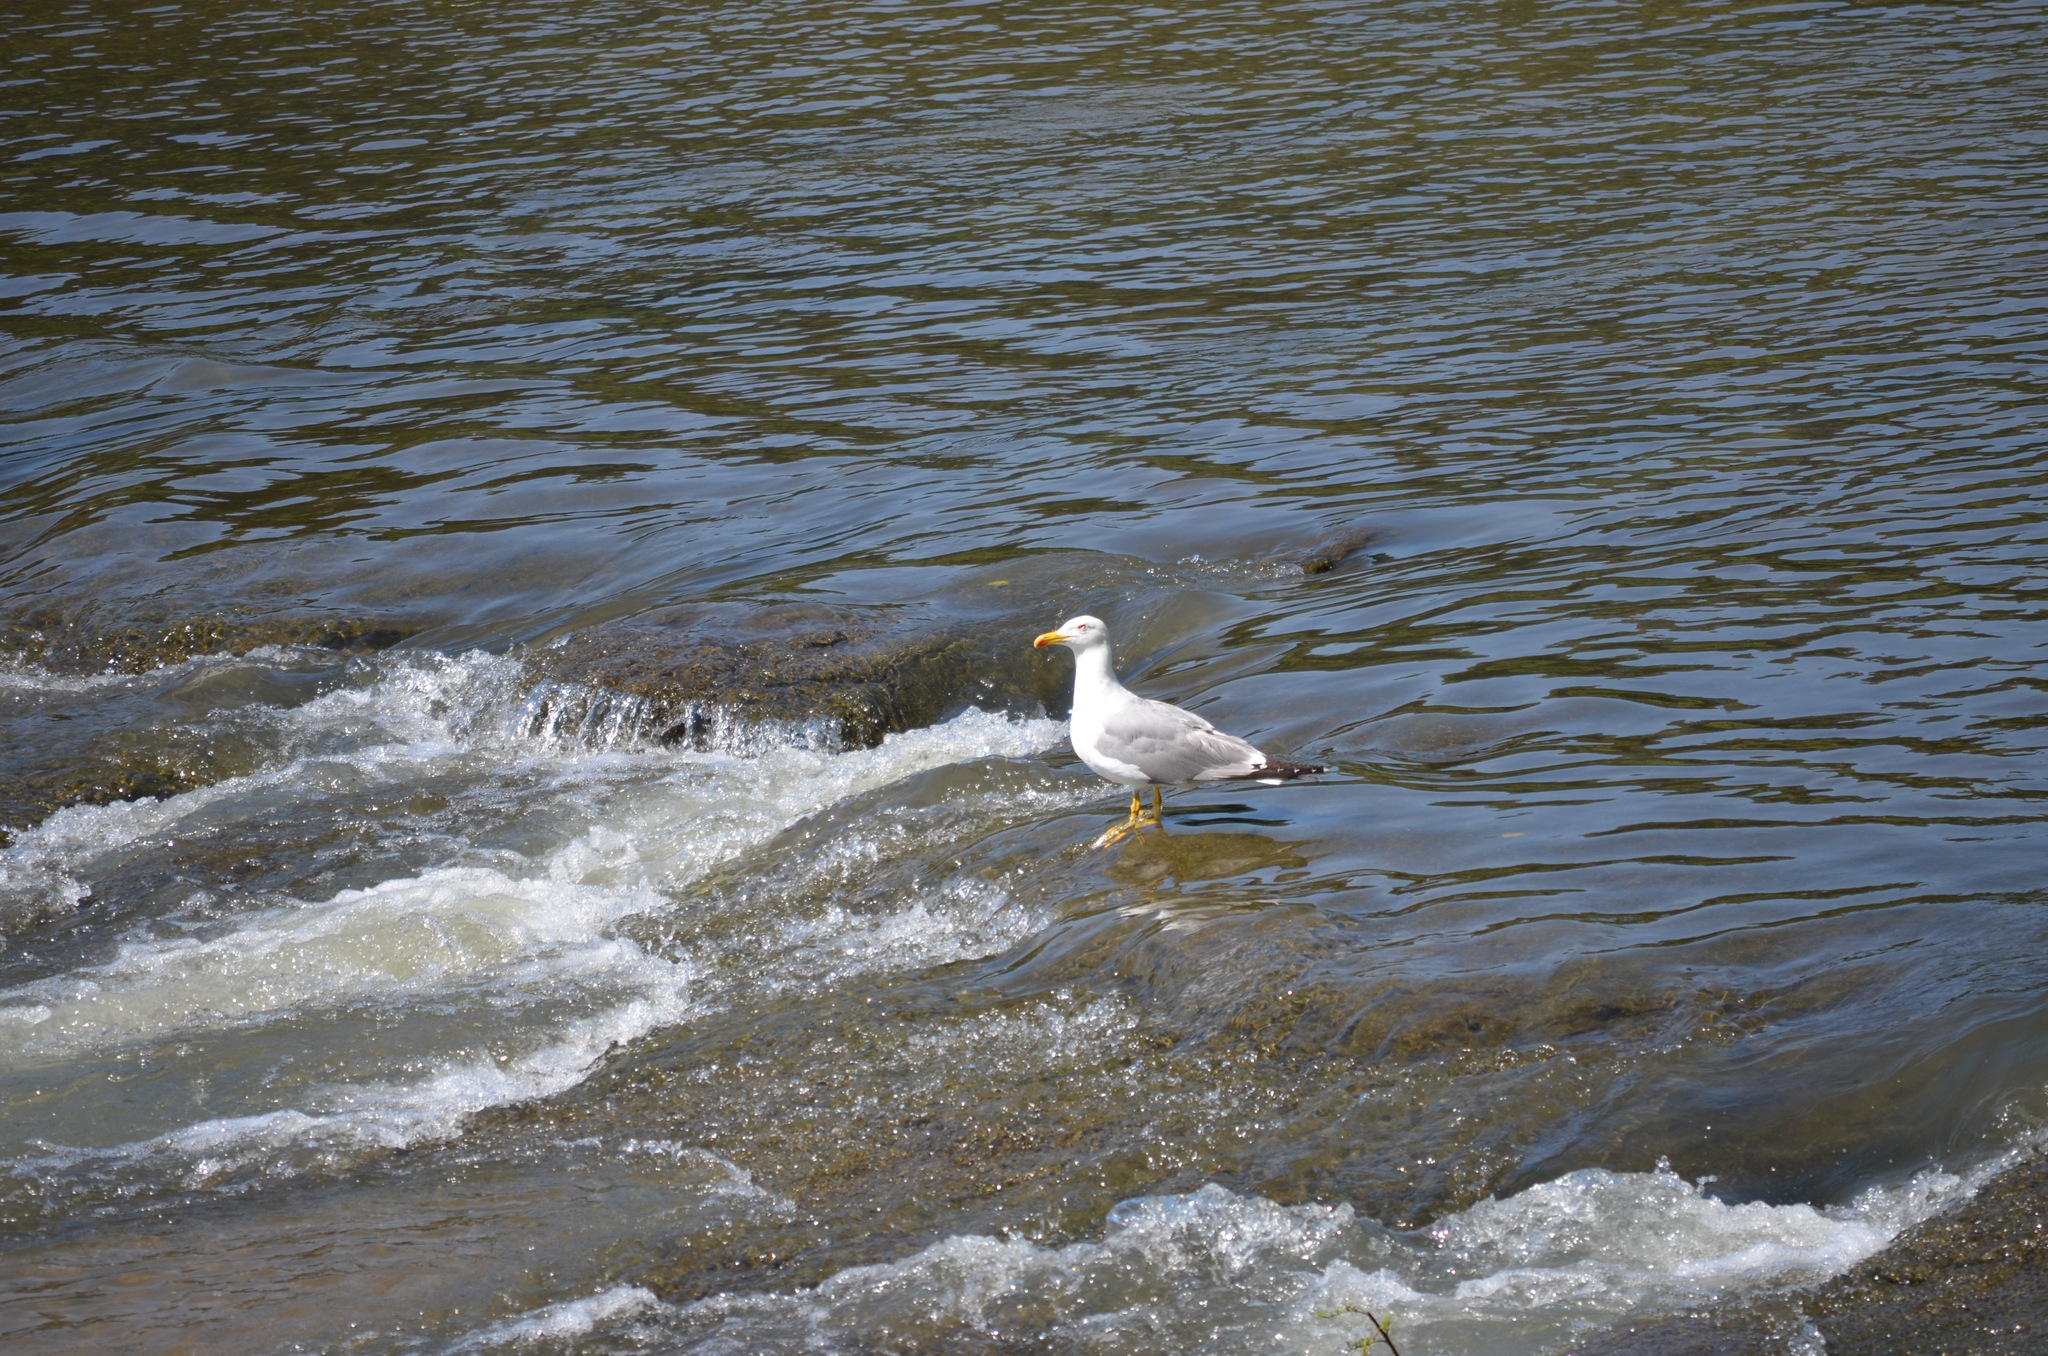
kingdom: Animalia
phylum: Chordata
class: Aves
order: Charadriiformes
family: Laridae
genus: Larus
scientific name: Larus michahellis
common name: Yellow-legged gull
